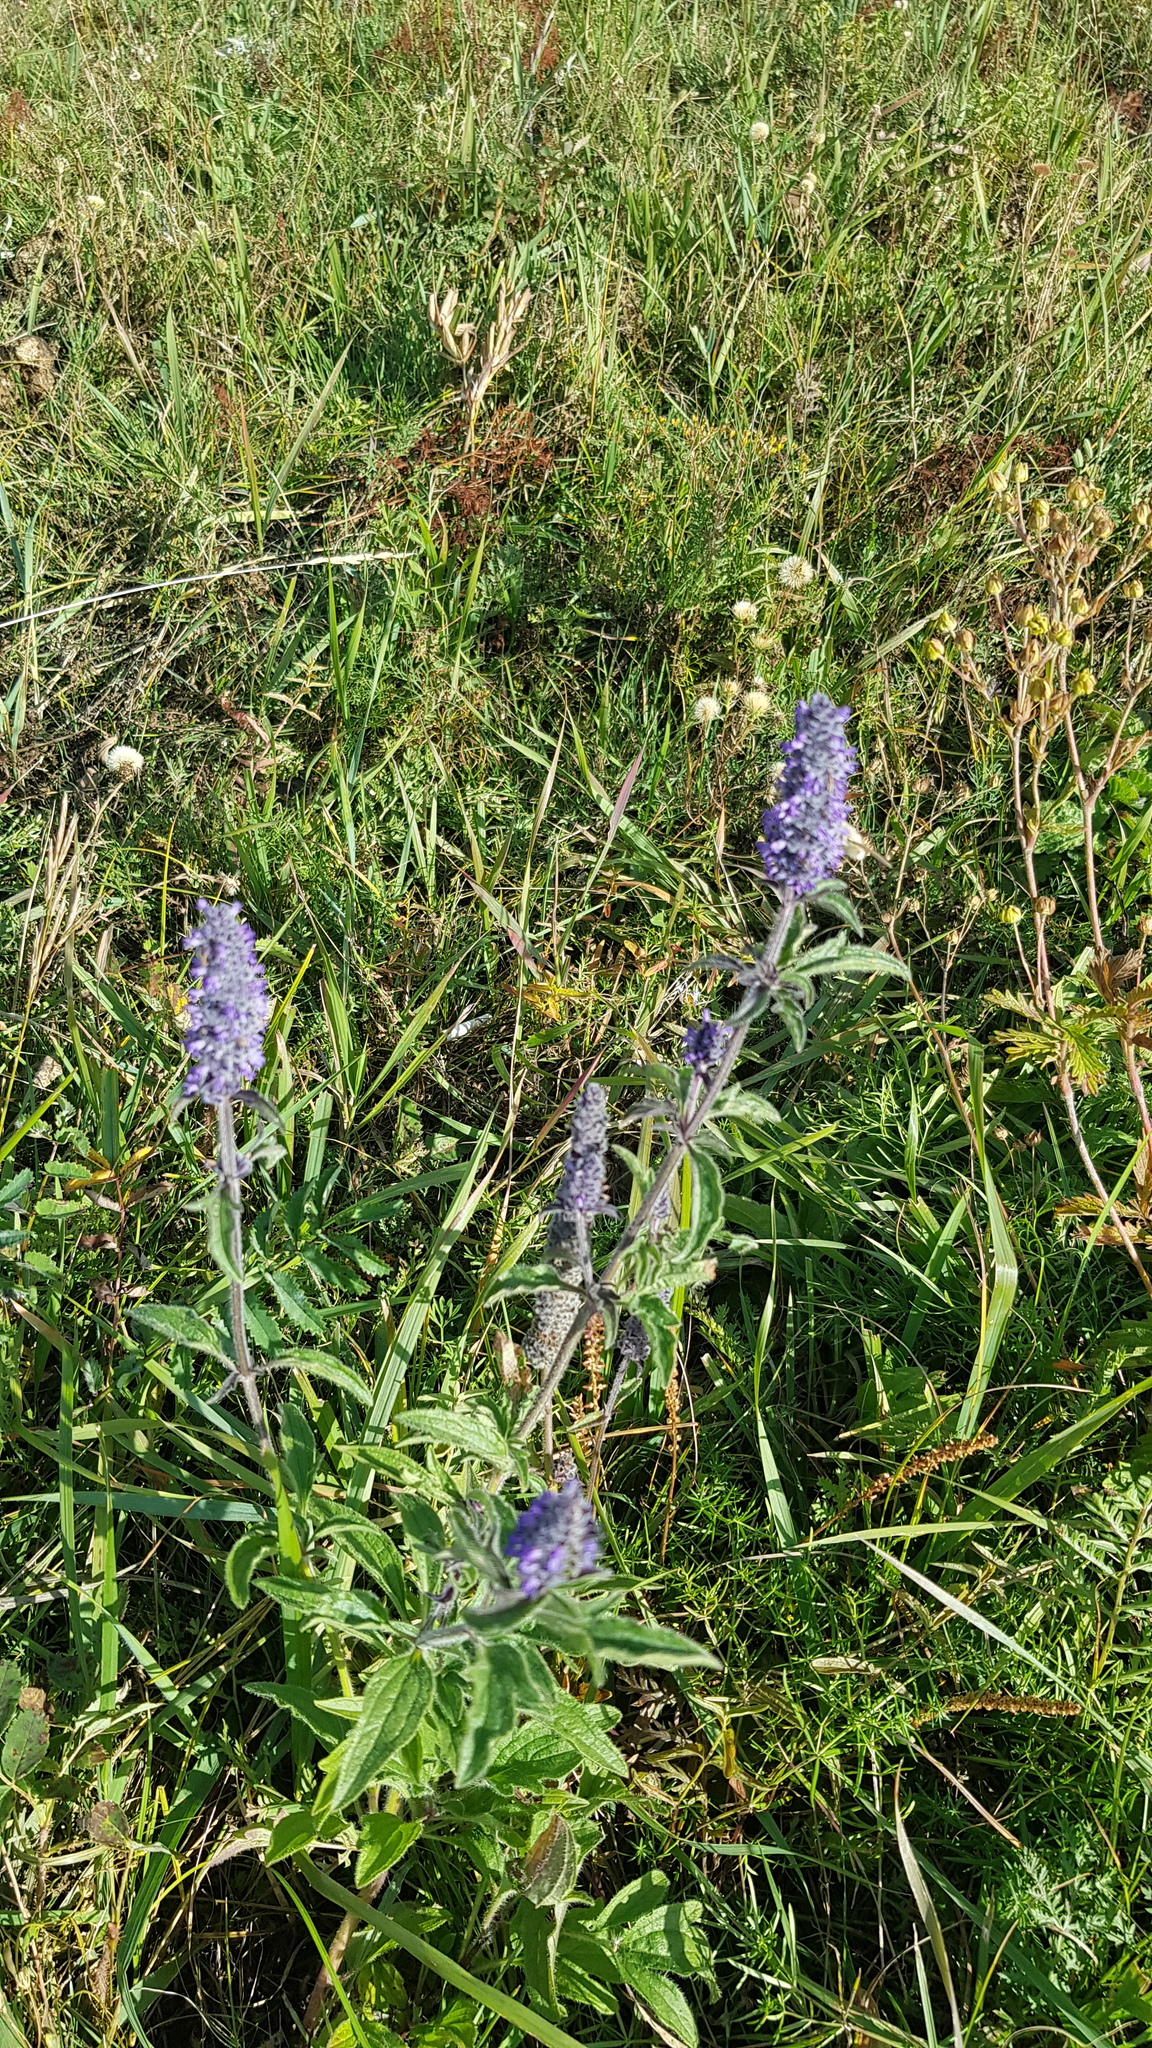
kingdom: Plantae
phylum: Tracheophyta
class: Magnoliopsida
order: Lamiales
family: Lamiaceae
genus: Nepeta
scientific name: Nepeta multifida
